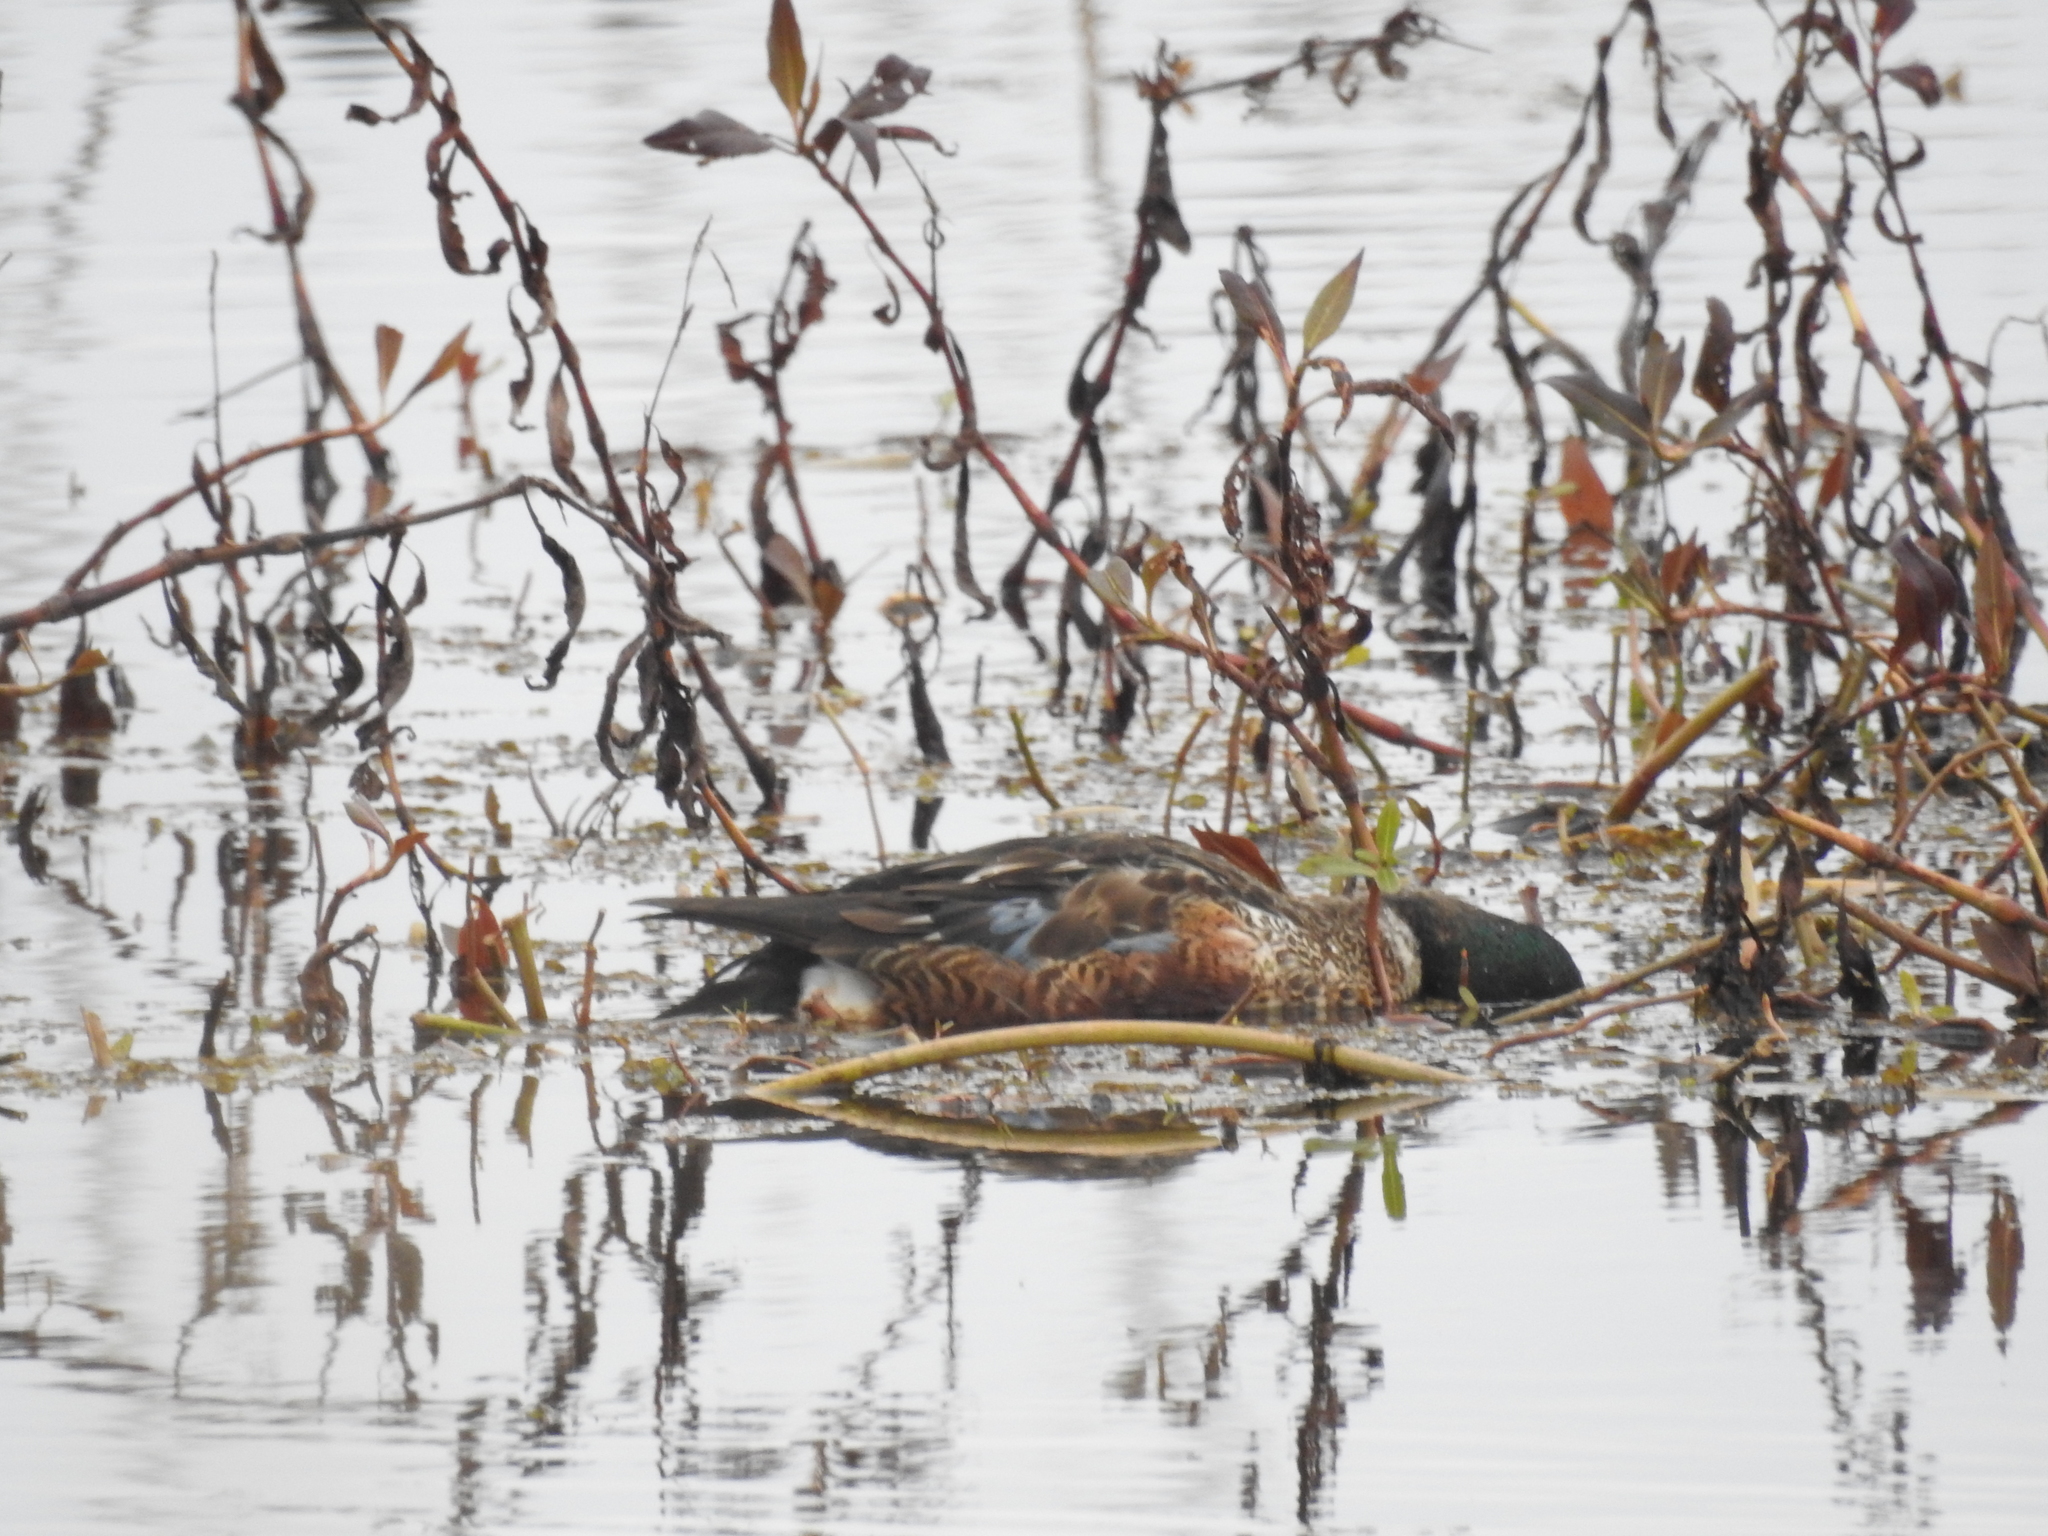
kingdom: Animalia
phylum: Chordata
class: Aves
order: Anseriformes
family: Anatidae
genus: Spatula
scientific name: Spatula clypeata
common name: Northern shoveler
